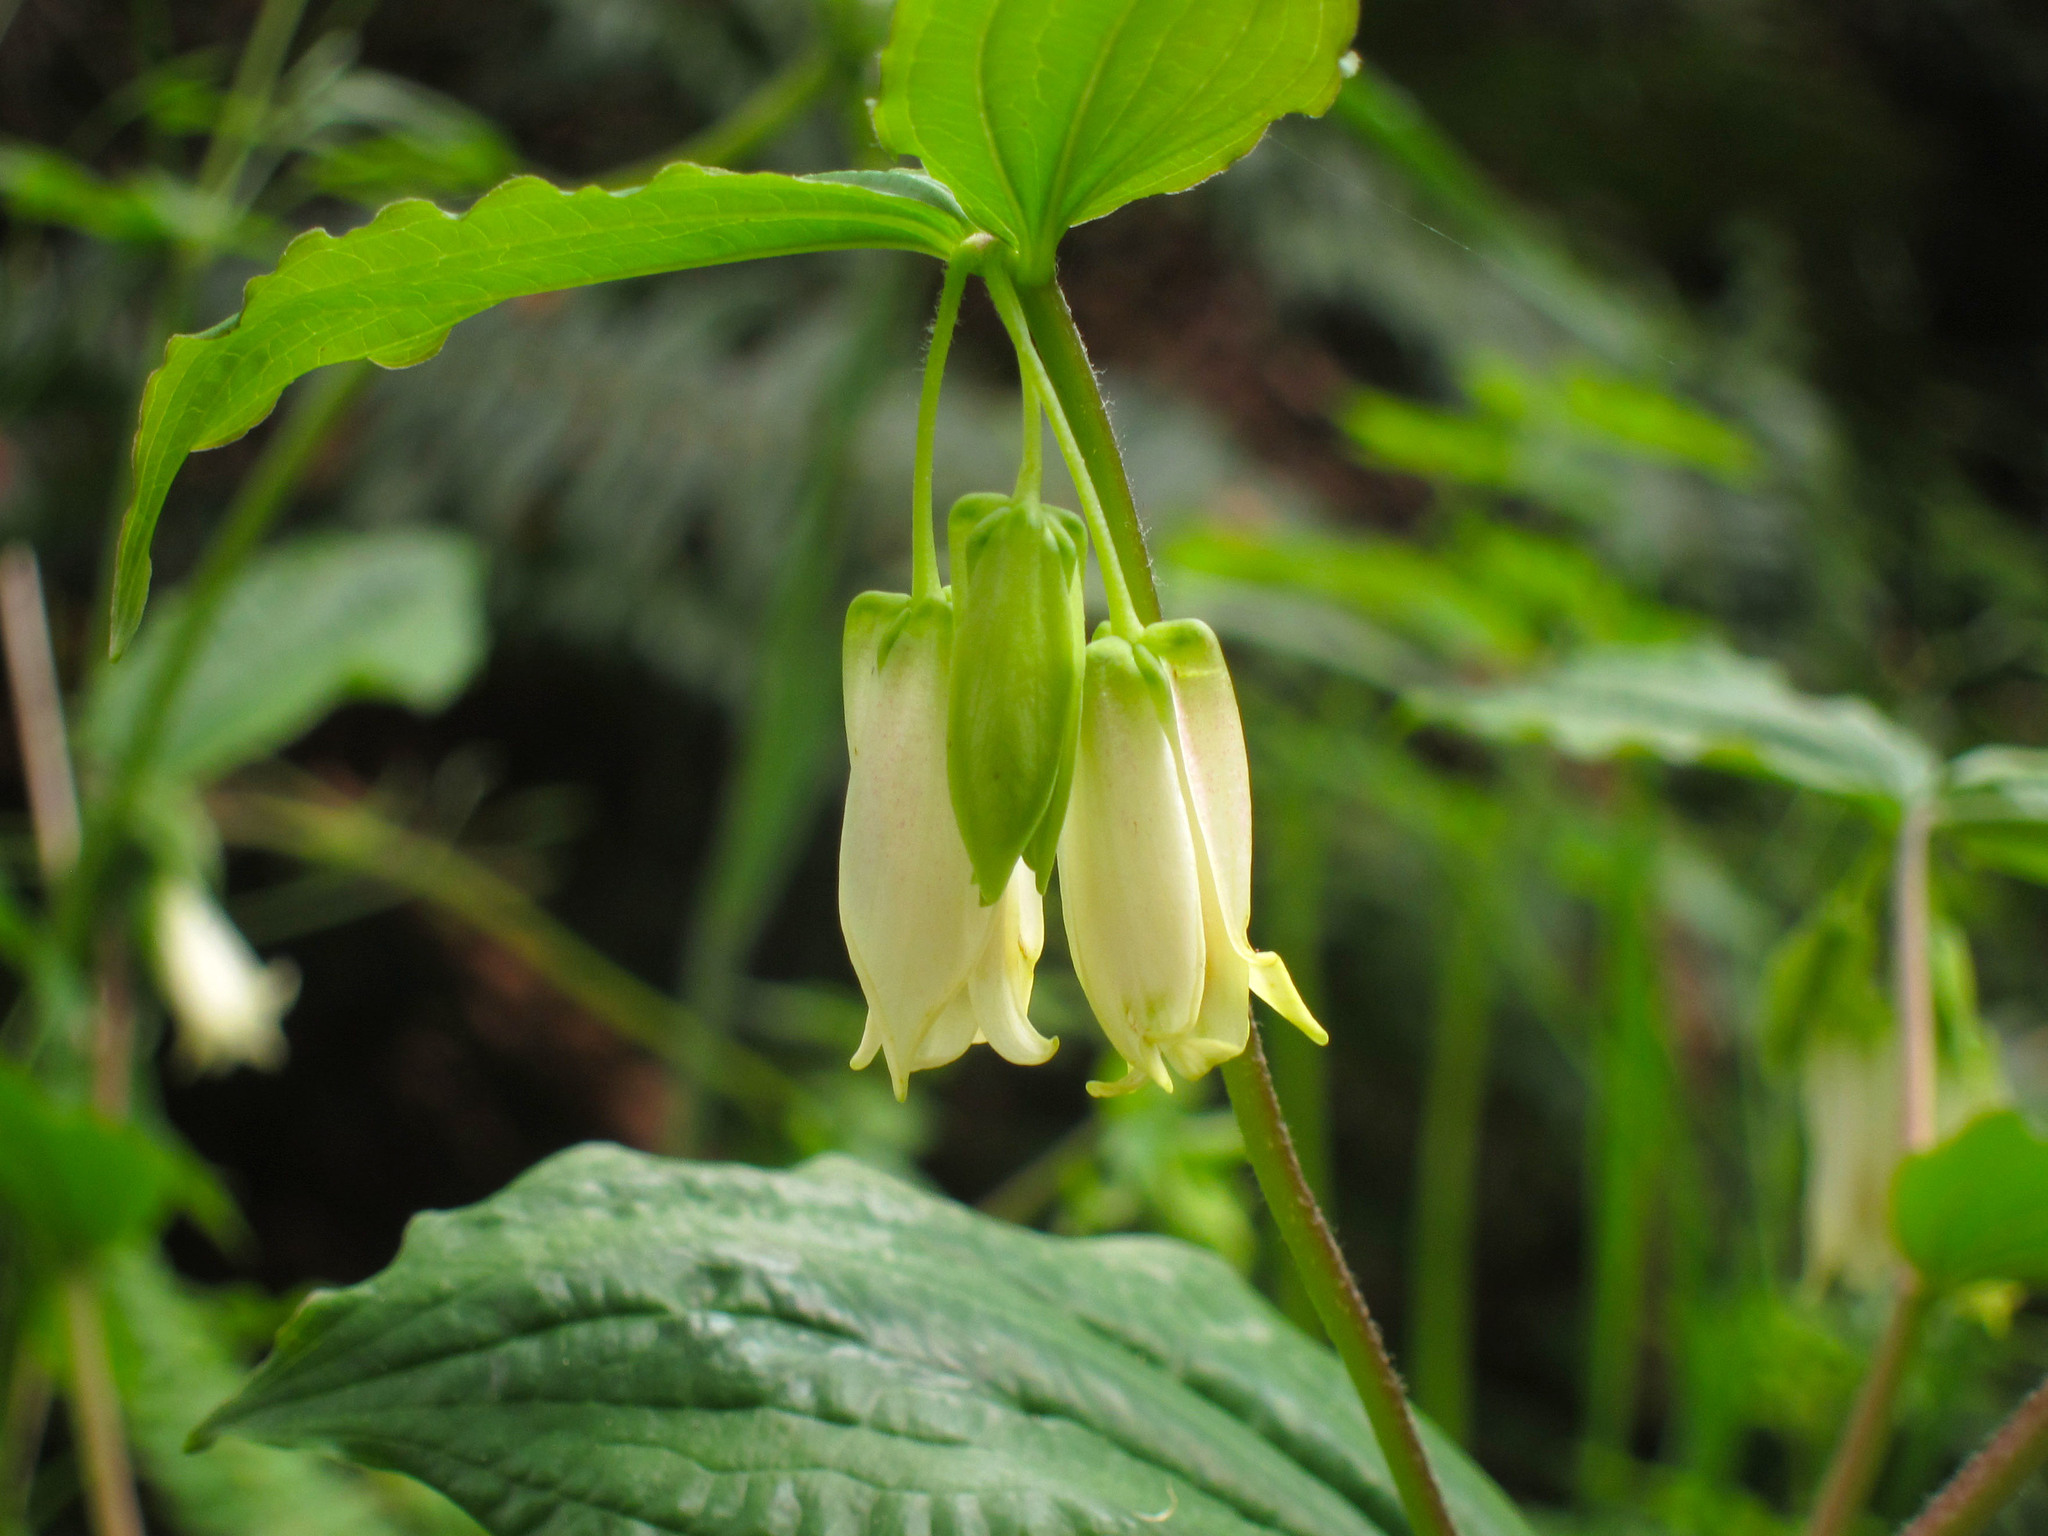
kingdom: Plantae
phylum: Tracheophyta
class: Liliopsida
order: Liliales
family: Liliaceae
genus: Prosartes
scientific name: Prosartes smithii
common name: Fairy-lantern
